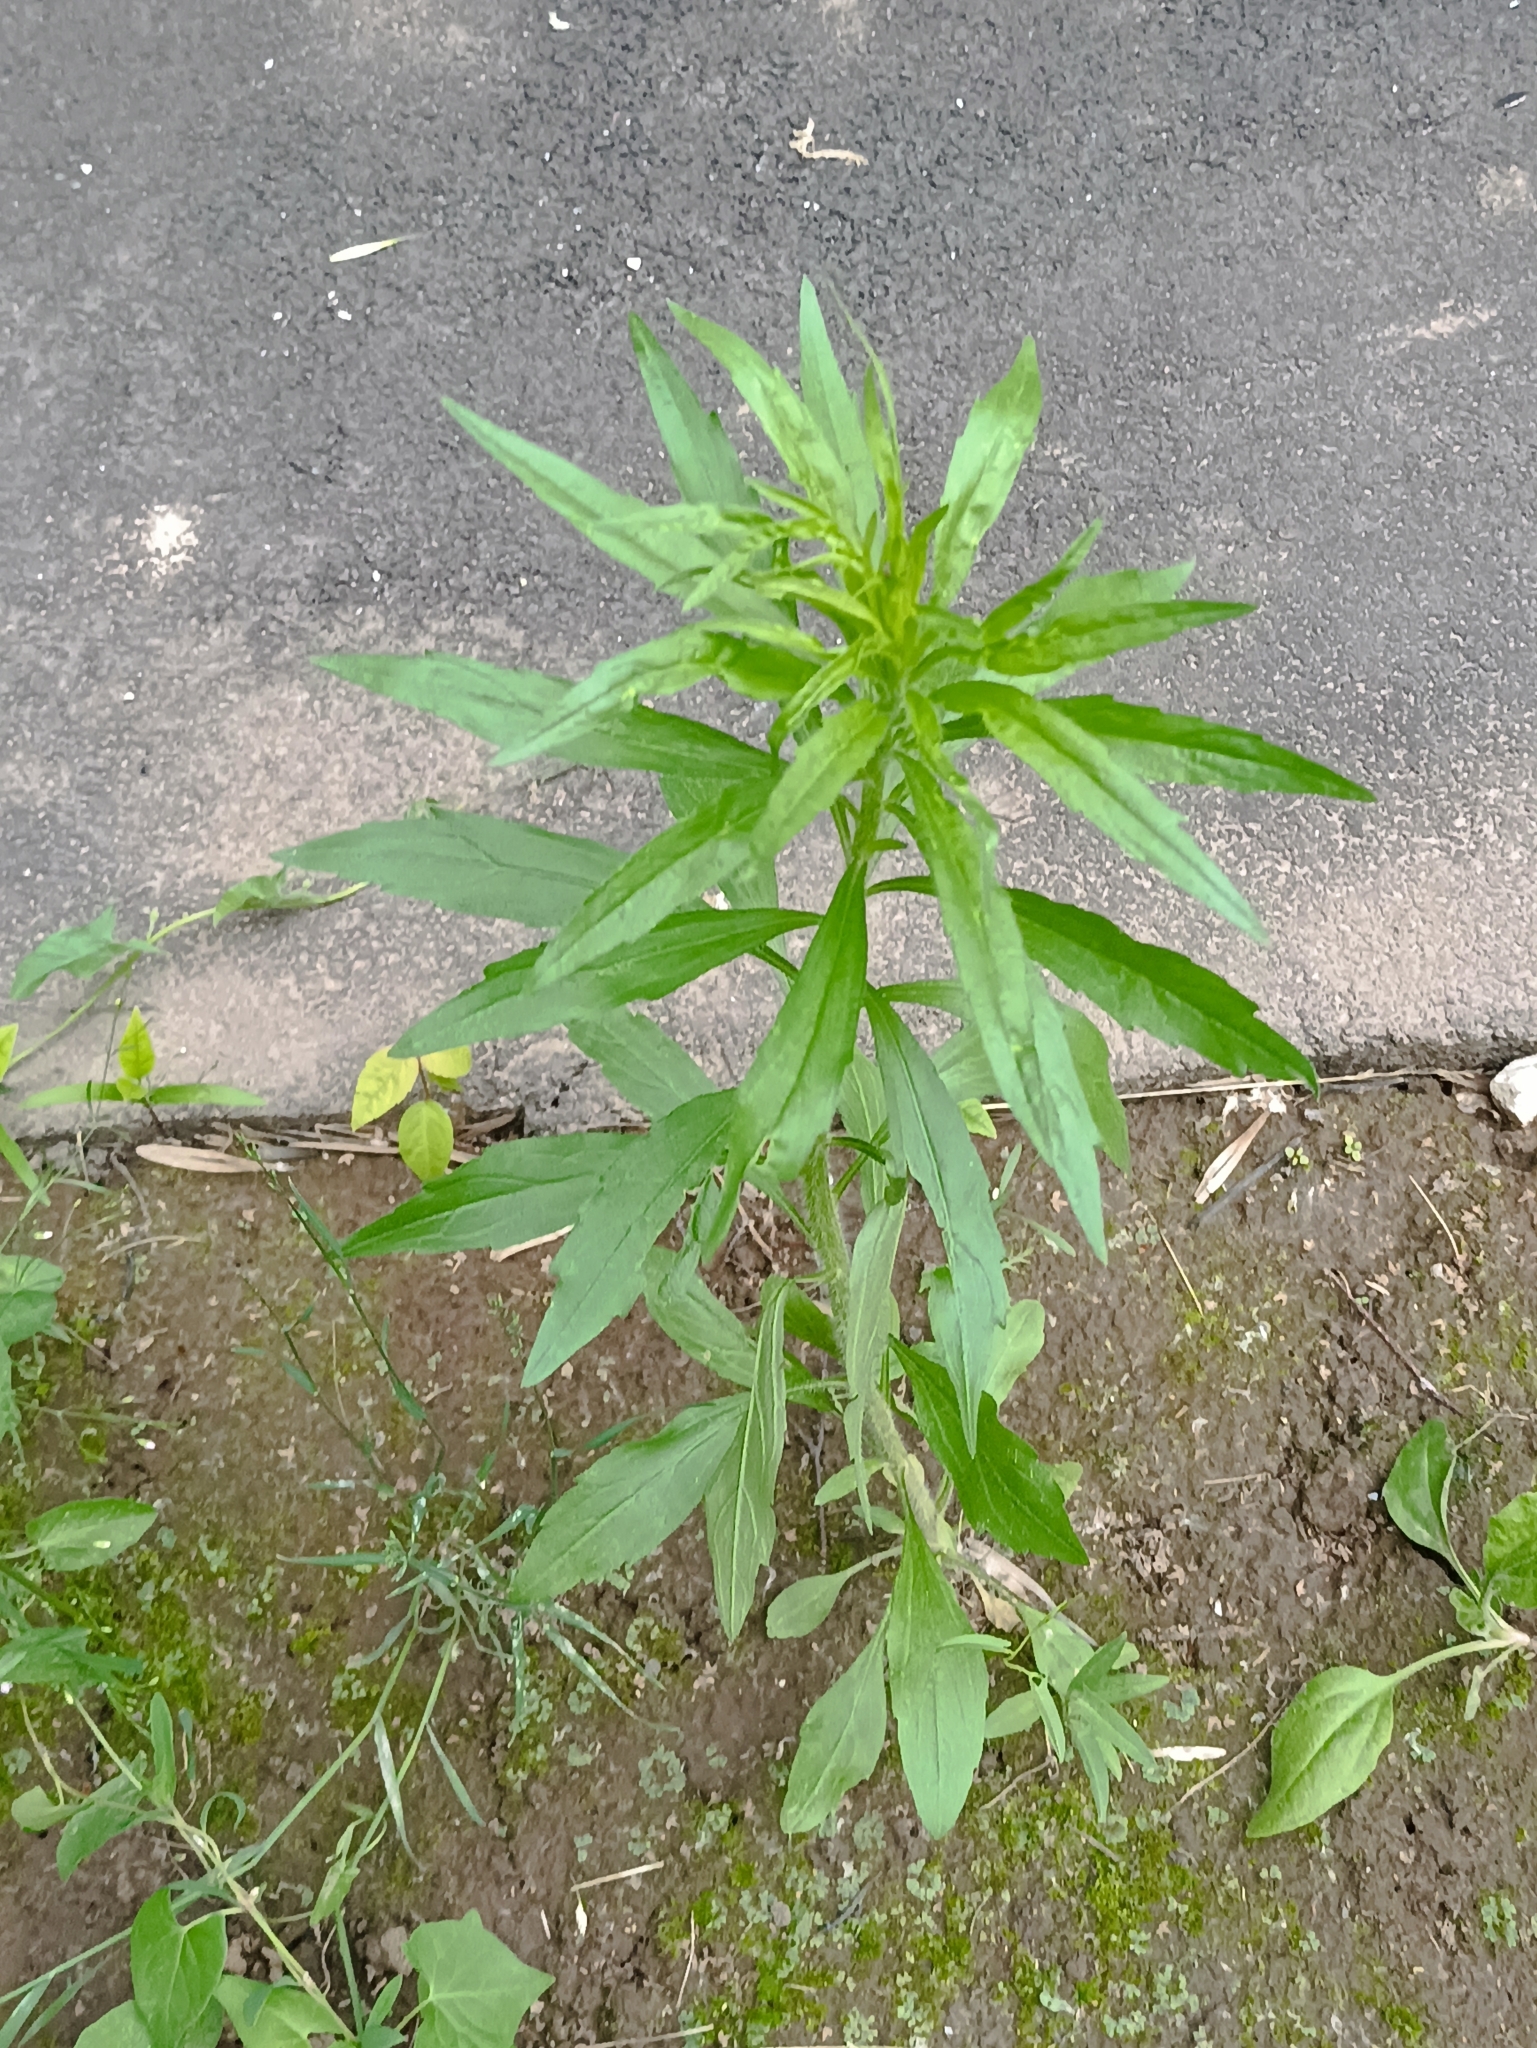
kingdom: Plantae
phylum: Tracheophyta
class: Magnoliopsida
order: Asterales
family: Asteraceae
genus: Erigeron
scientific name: Erigeron canadensis
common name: Canadian fleabane
